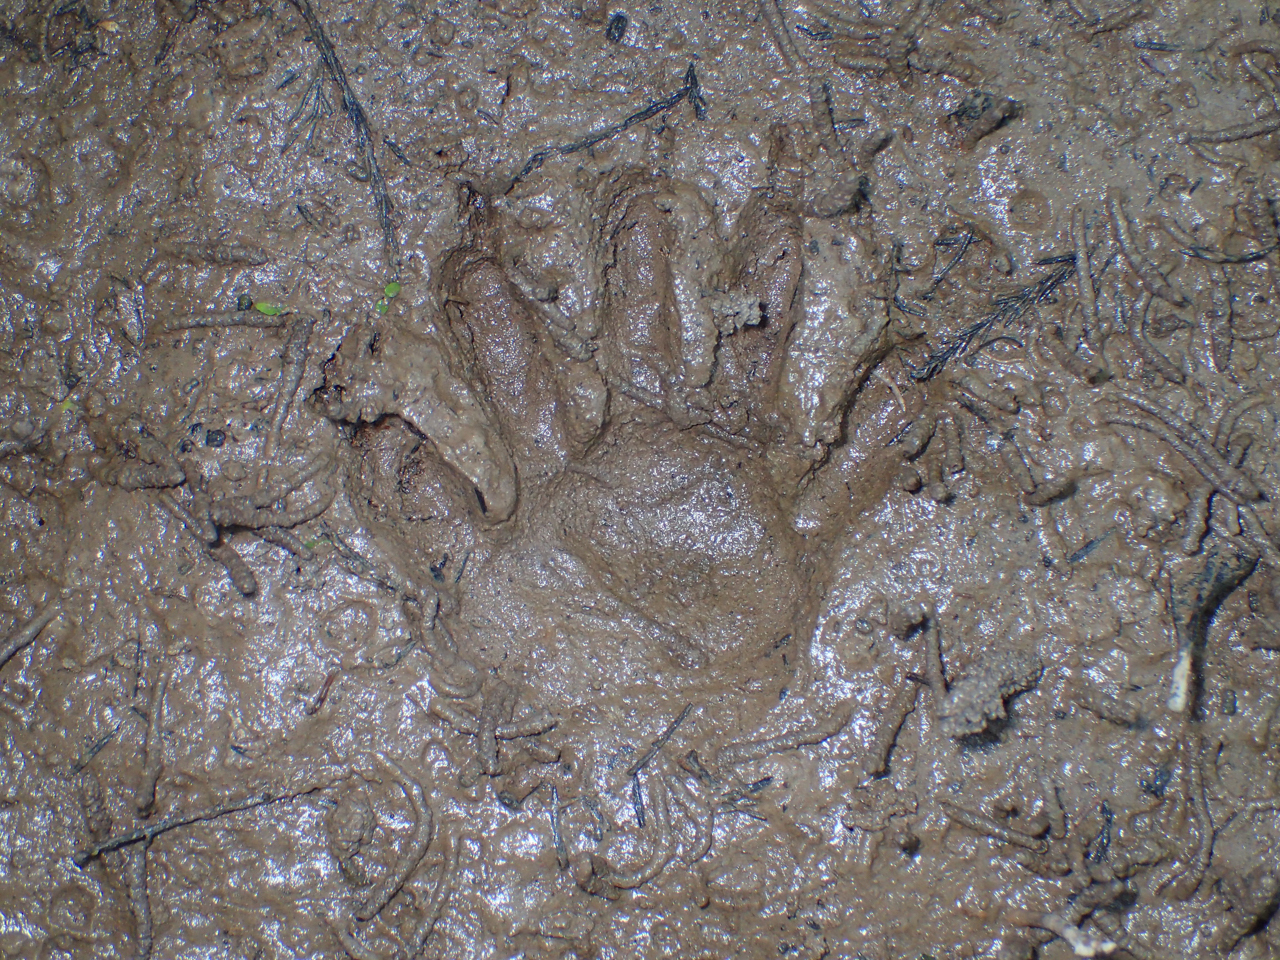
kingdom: Animalia
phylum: Chordata
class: Mammalia
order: Carnivora
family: Procyonidae
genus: Procyon
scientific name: Procyon lotor
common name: Raccoon
